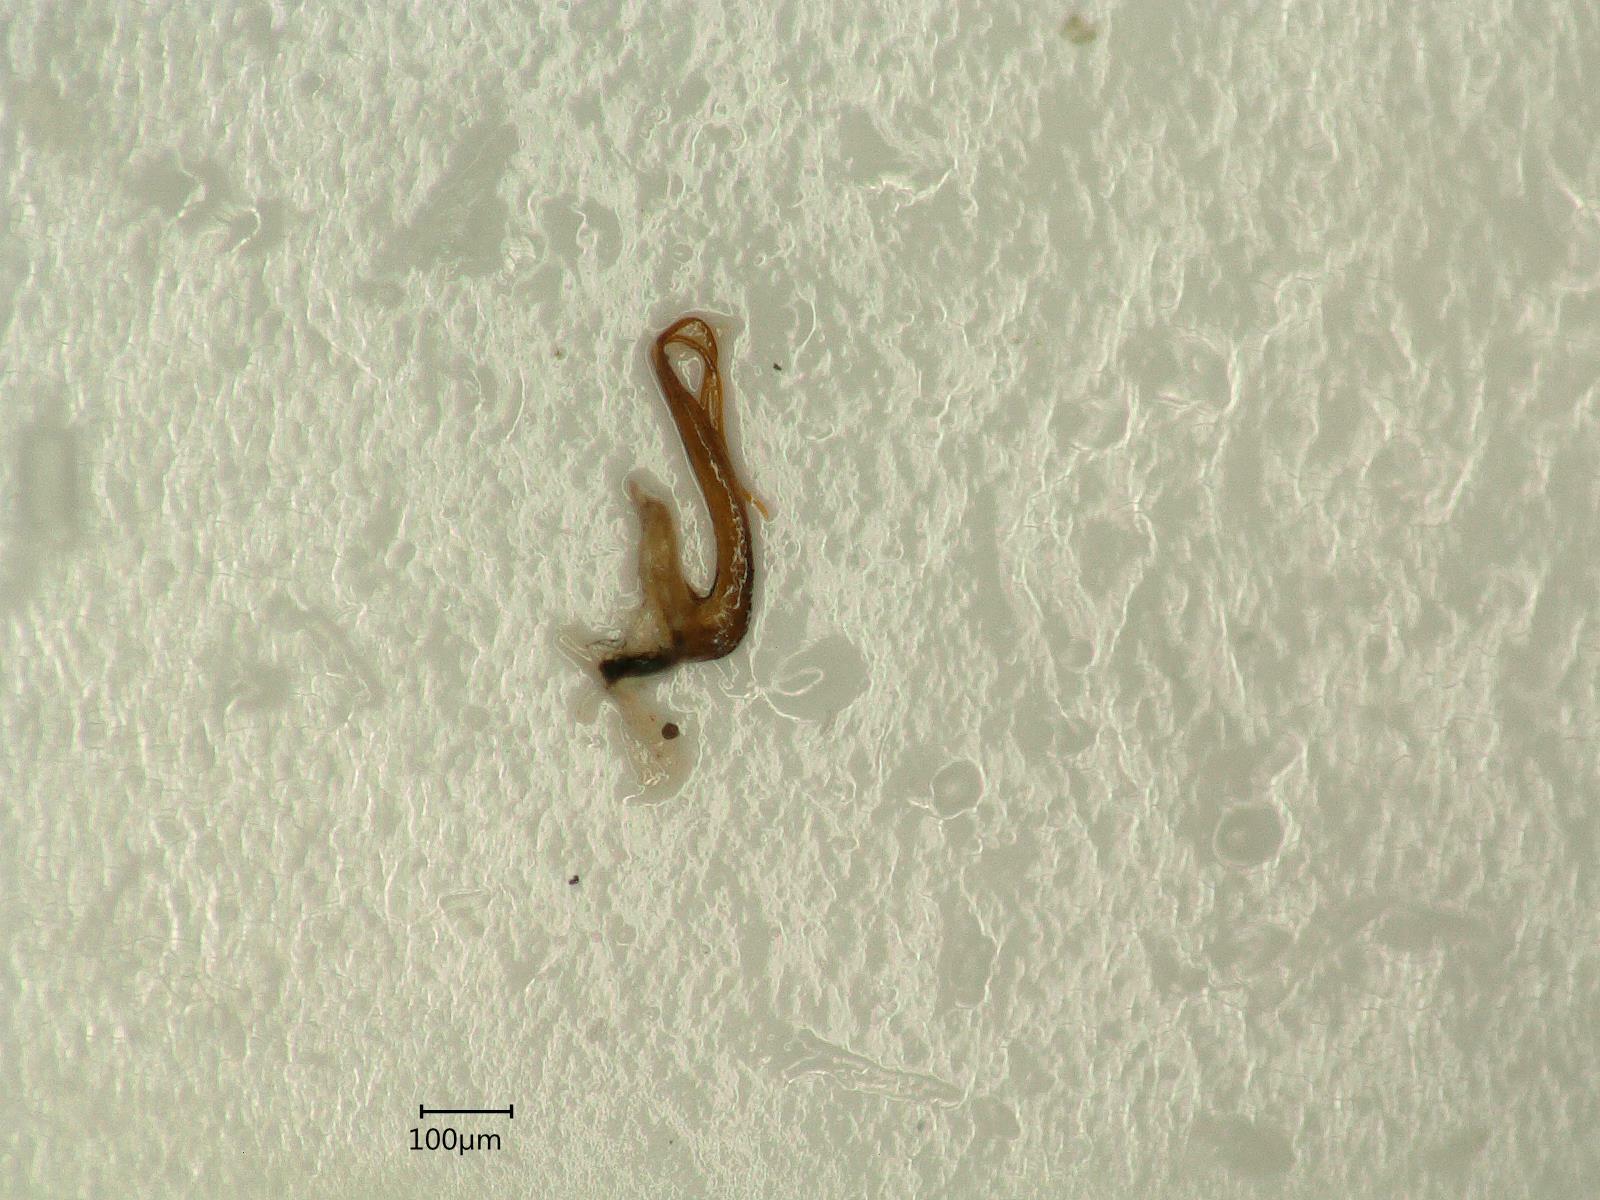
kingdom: Animalia
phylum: Arthropoda
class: Insecta
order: Hemiptera
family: Cicadellidae
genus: Macrosteles
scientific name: Macrosteles variatus
